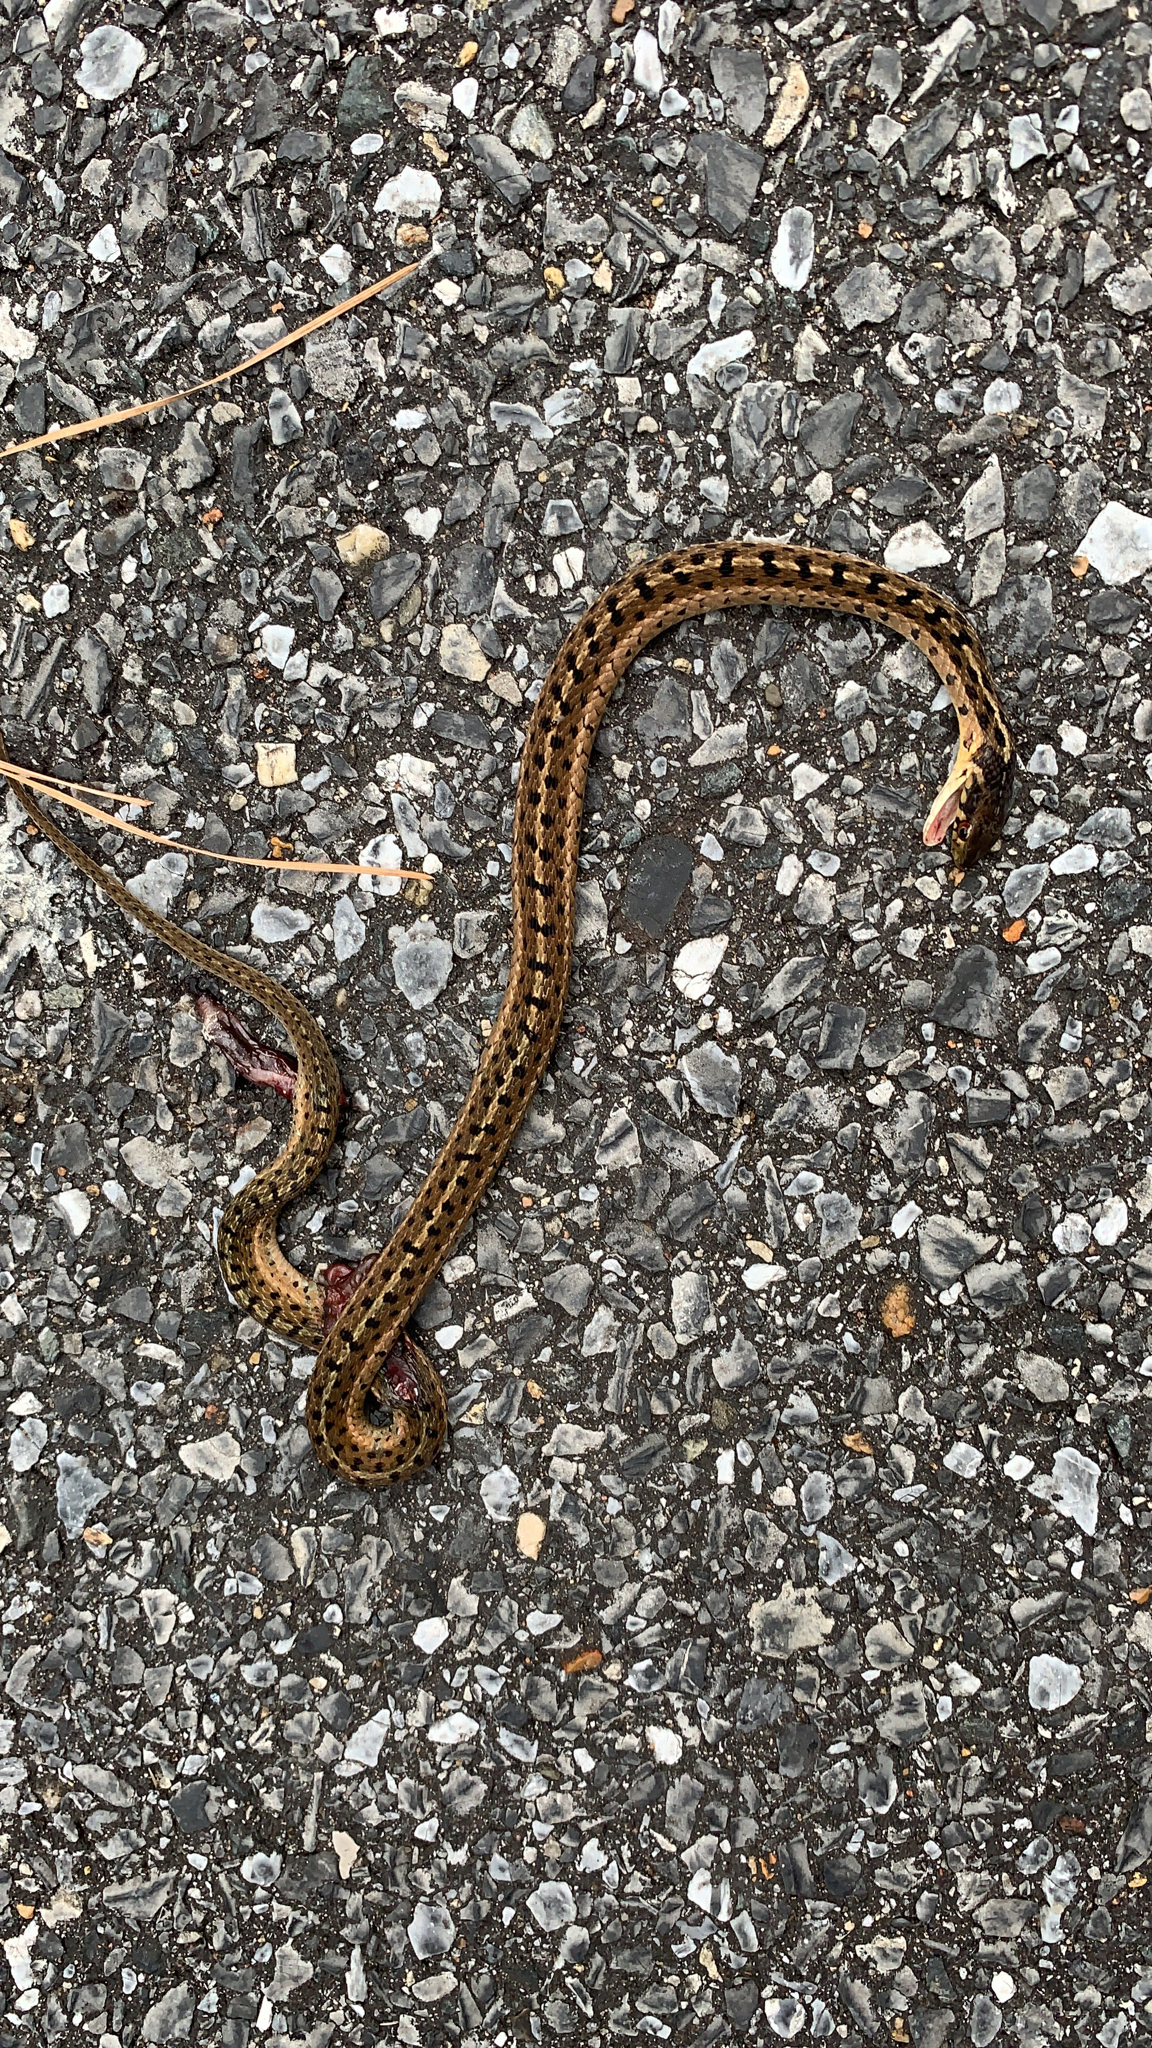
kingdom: Animalia
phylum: Chordata
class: Squamata
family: Colubridae
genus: Thamnophis
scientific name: Thamnophis sirtalis
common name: Common garter snake
